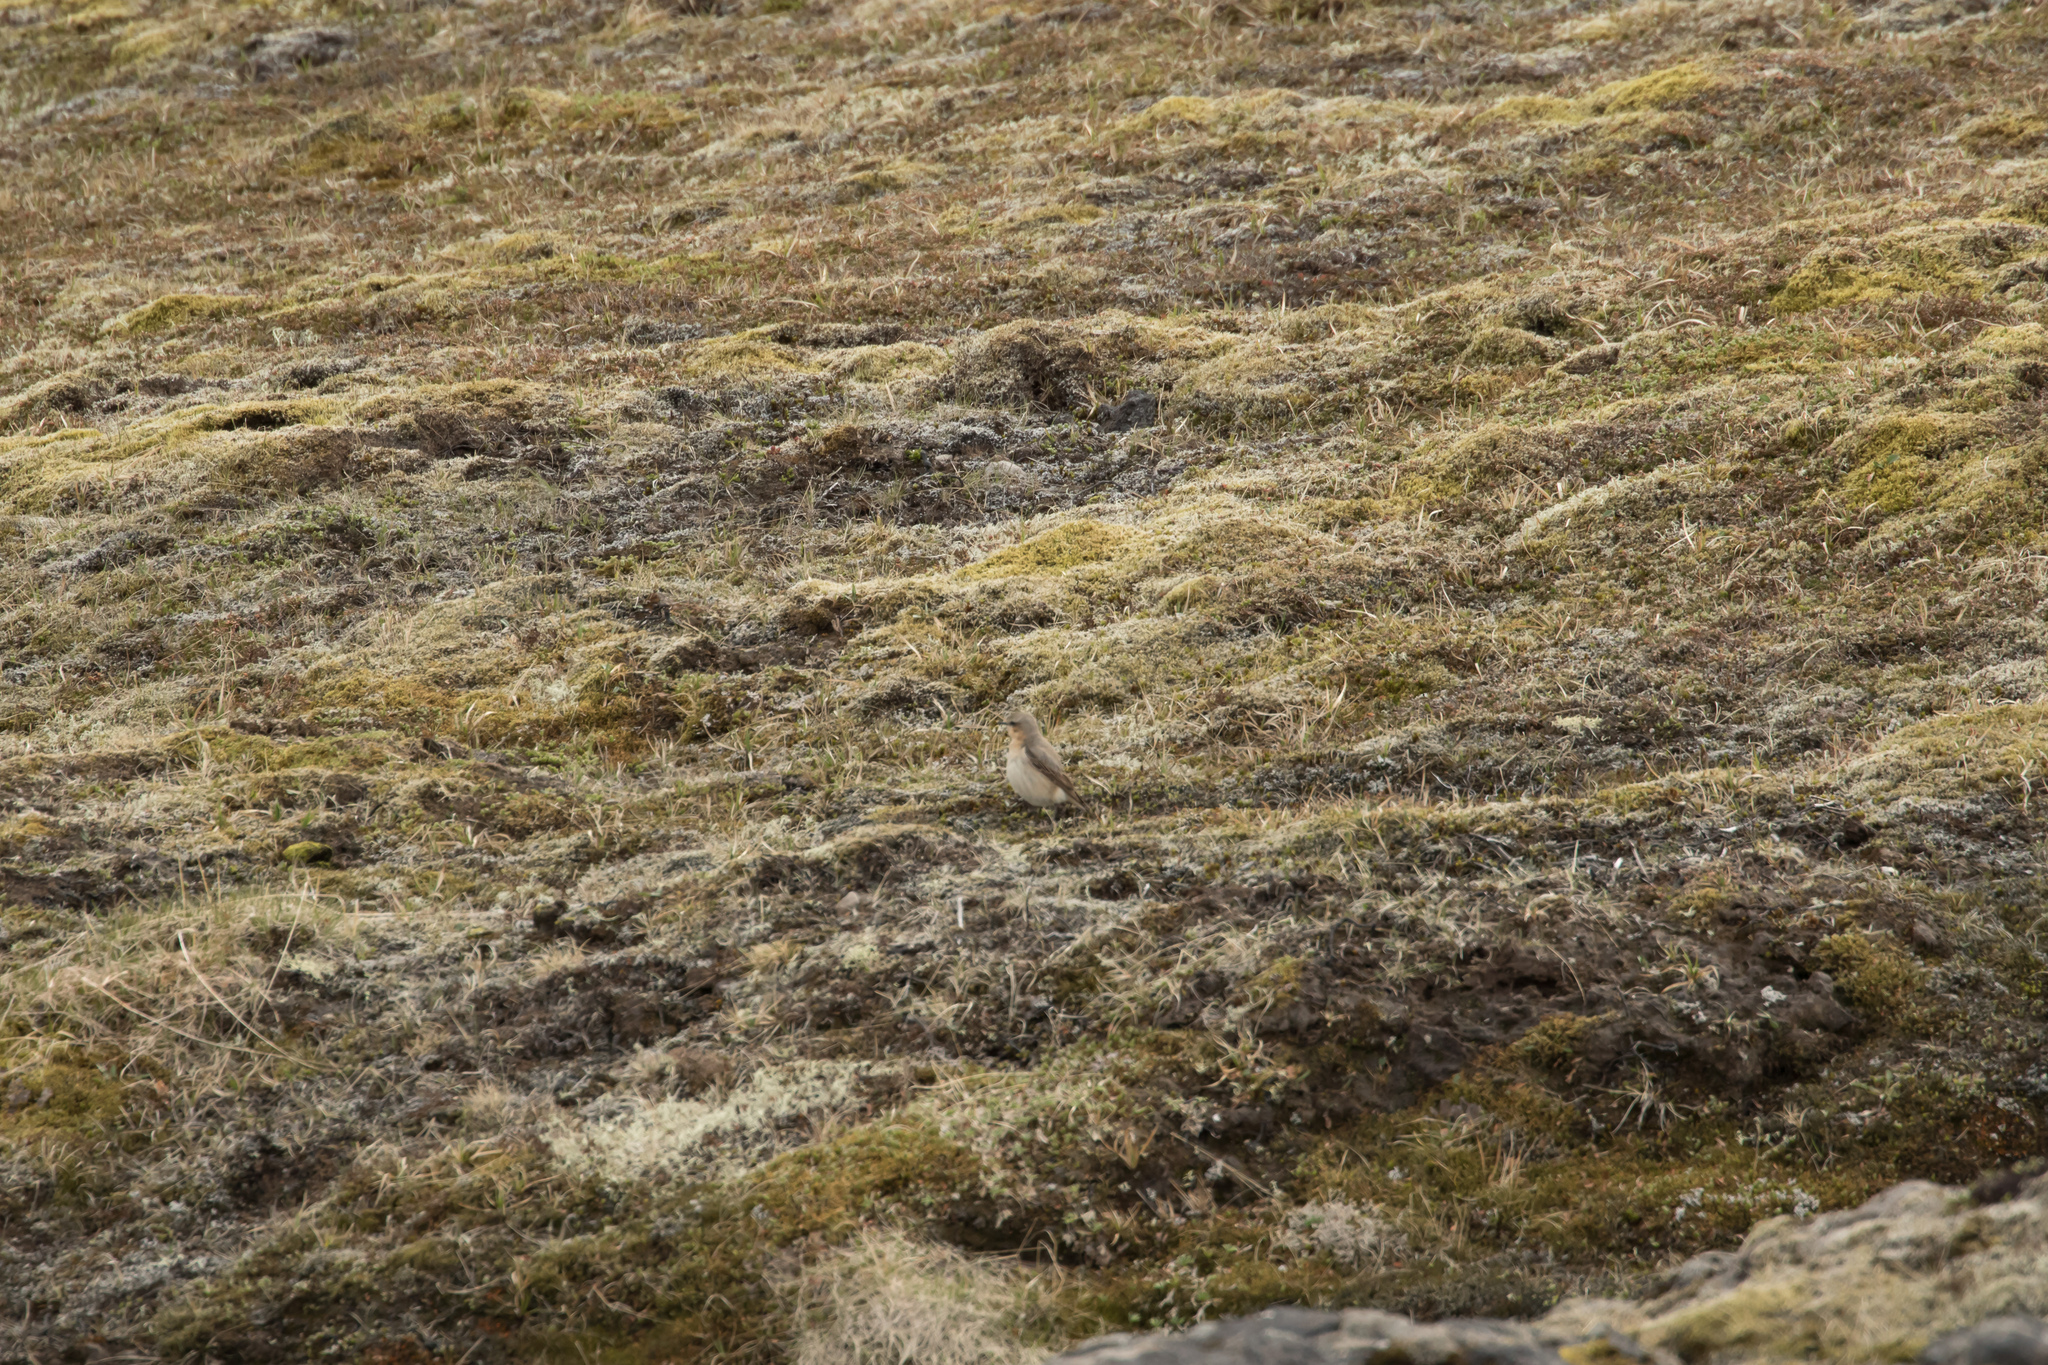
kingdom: Animalia
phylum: Chordata
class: Aves
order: Passeriformes
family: Muscicapidae
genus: Oenanthe
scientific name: Oenanthe oenanthe
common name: Northern wheatear
